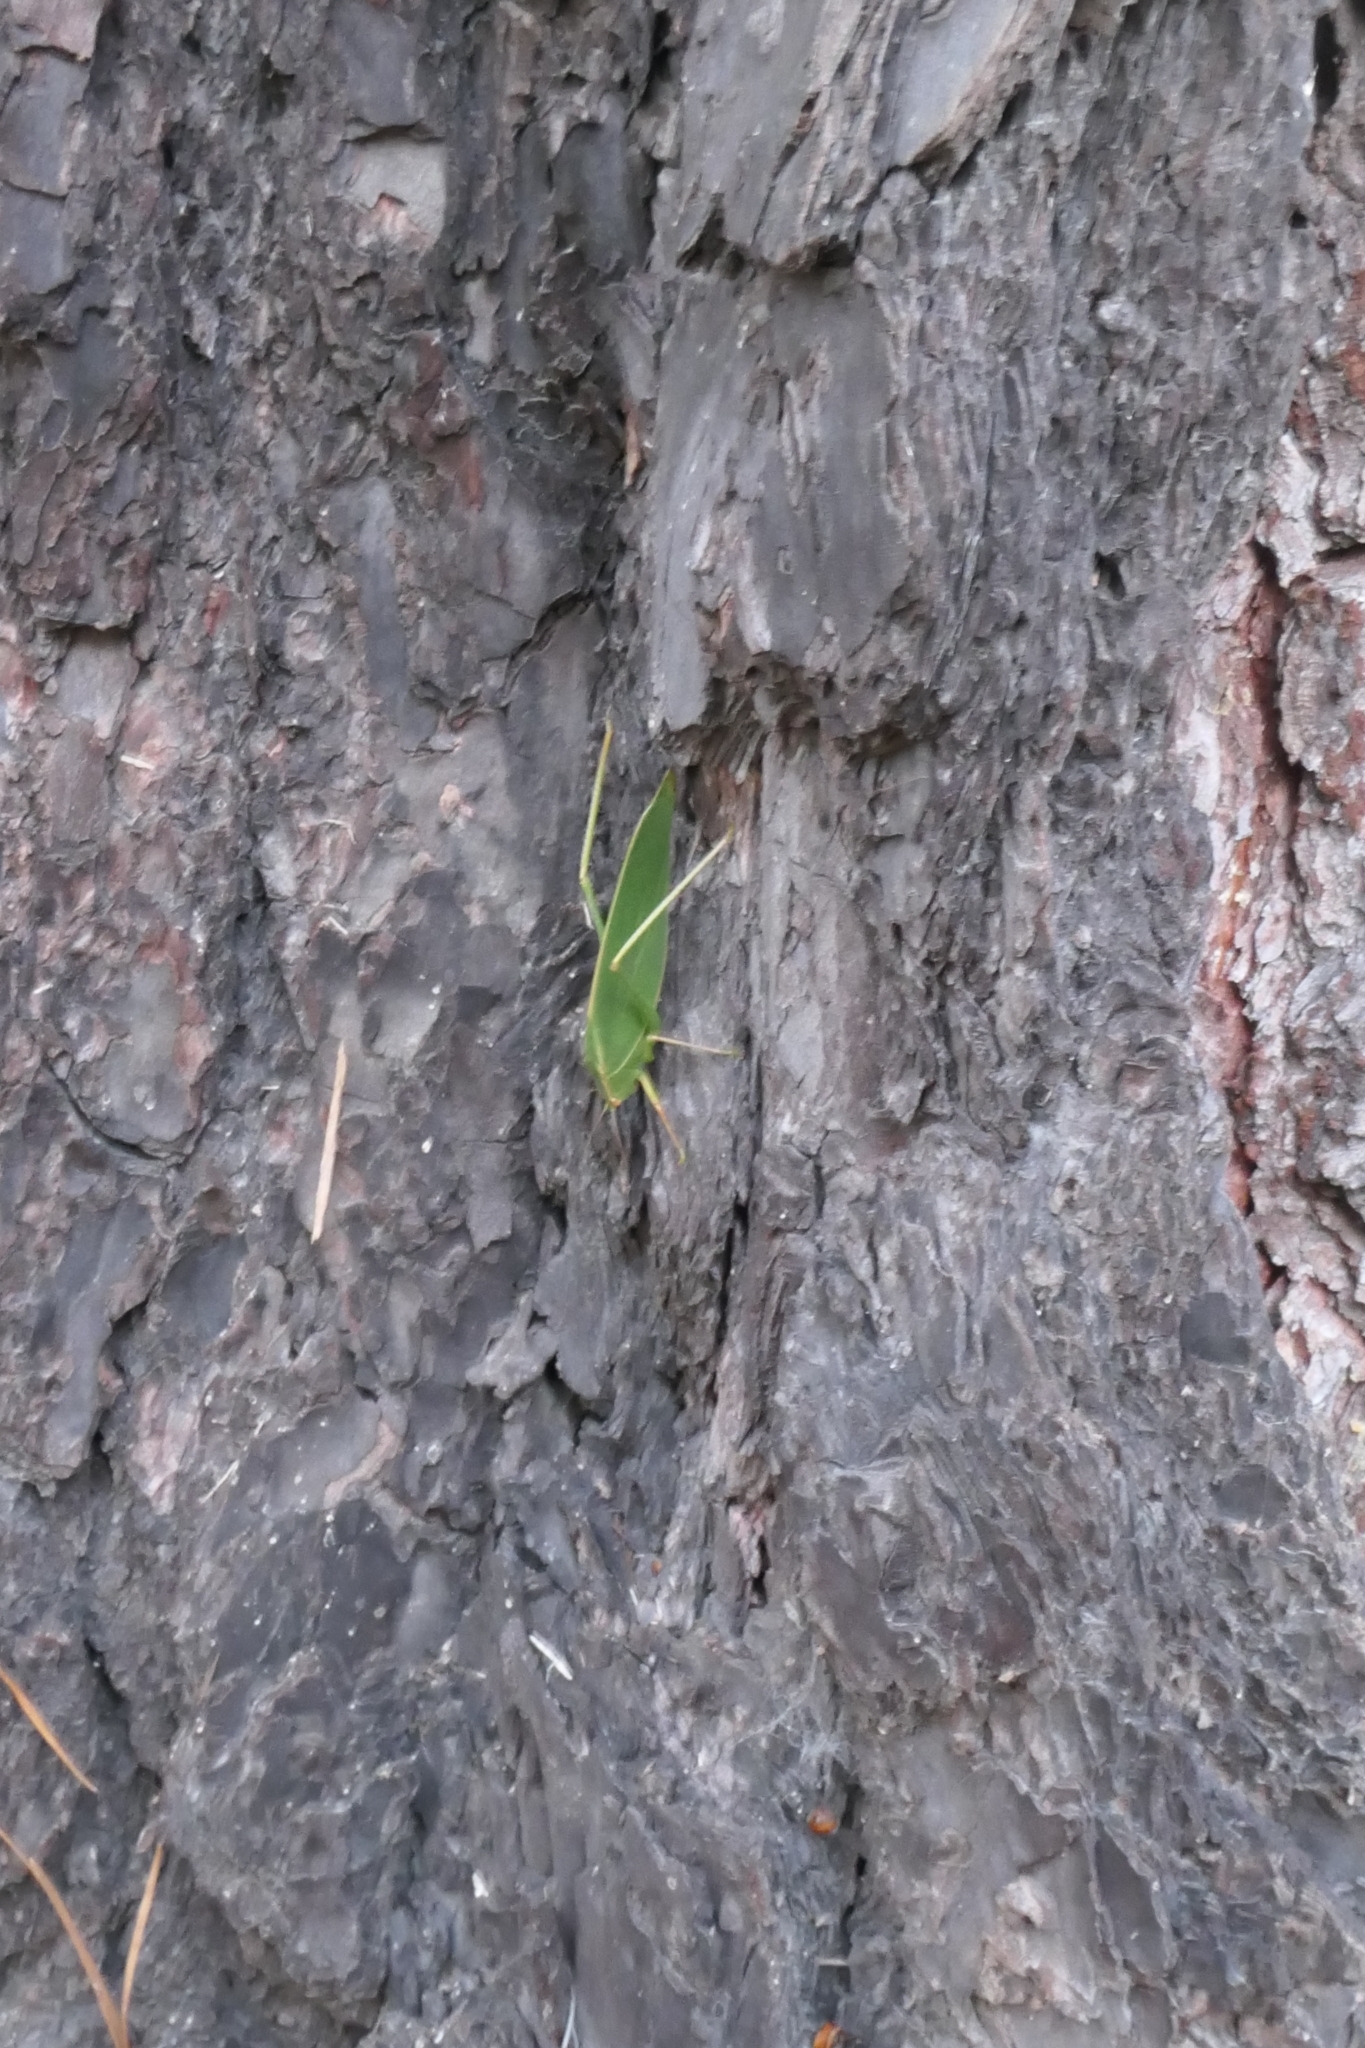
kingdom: Animalia
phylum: Arthropoda
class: Insecta
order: Orthoptera
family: Tettigoniidae
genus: Caedicia
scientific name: Caedicia simplex
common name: Common garden katydid
